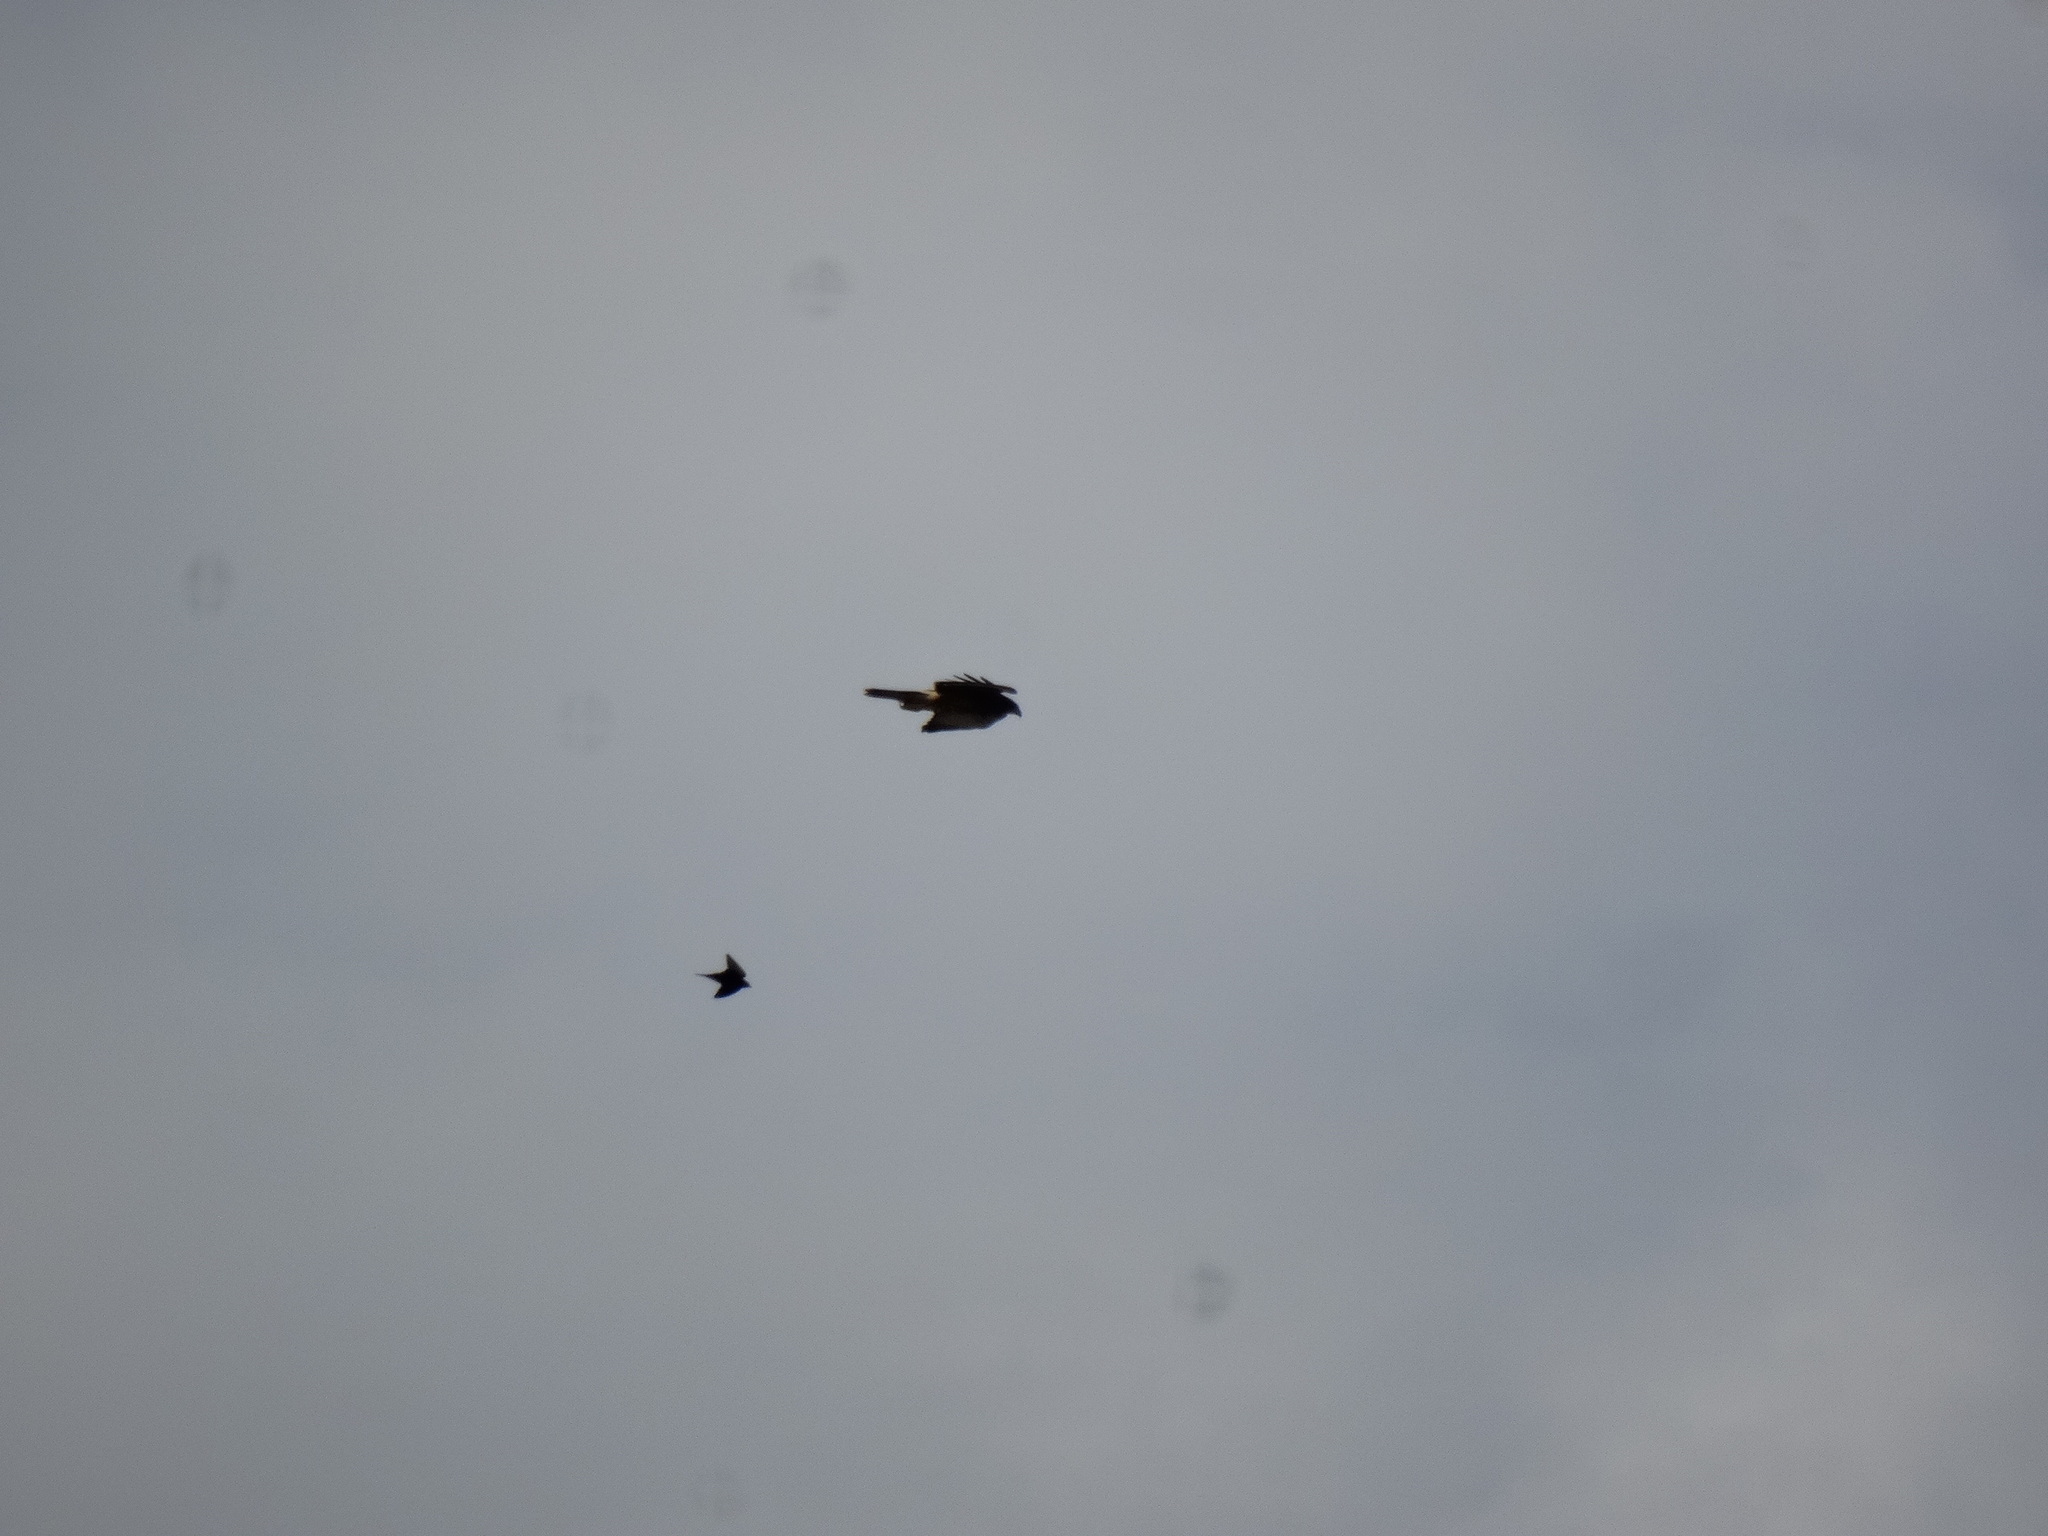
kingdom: Animalia
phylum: Chordata
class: Aves
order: Accipitriformes
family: Accipitridae
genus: Parabuteo
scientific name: Parabuteo unicinctus
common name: Harris's hawk
